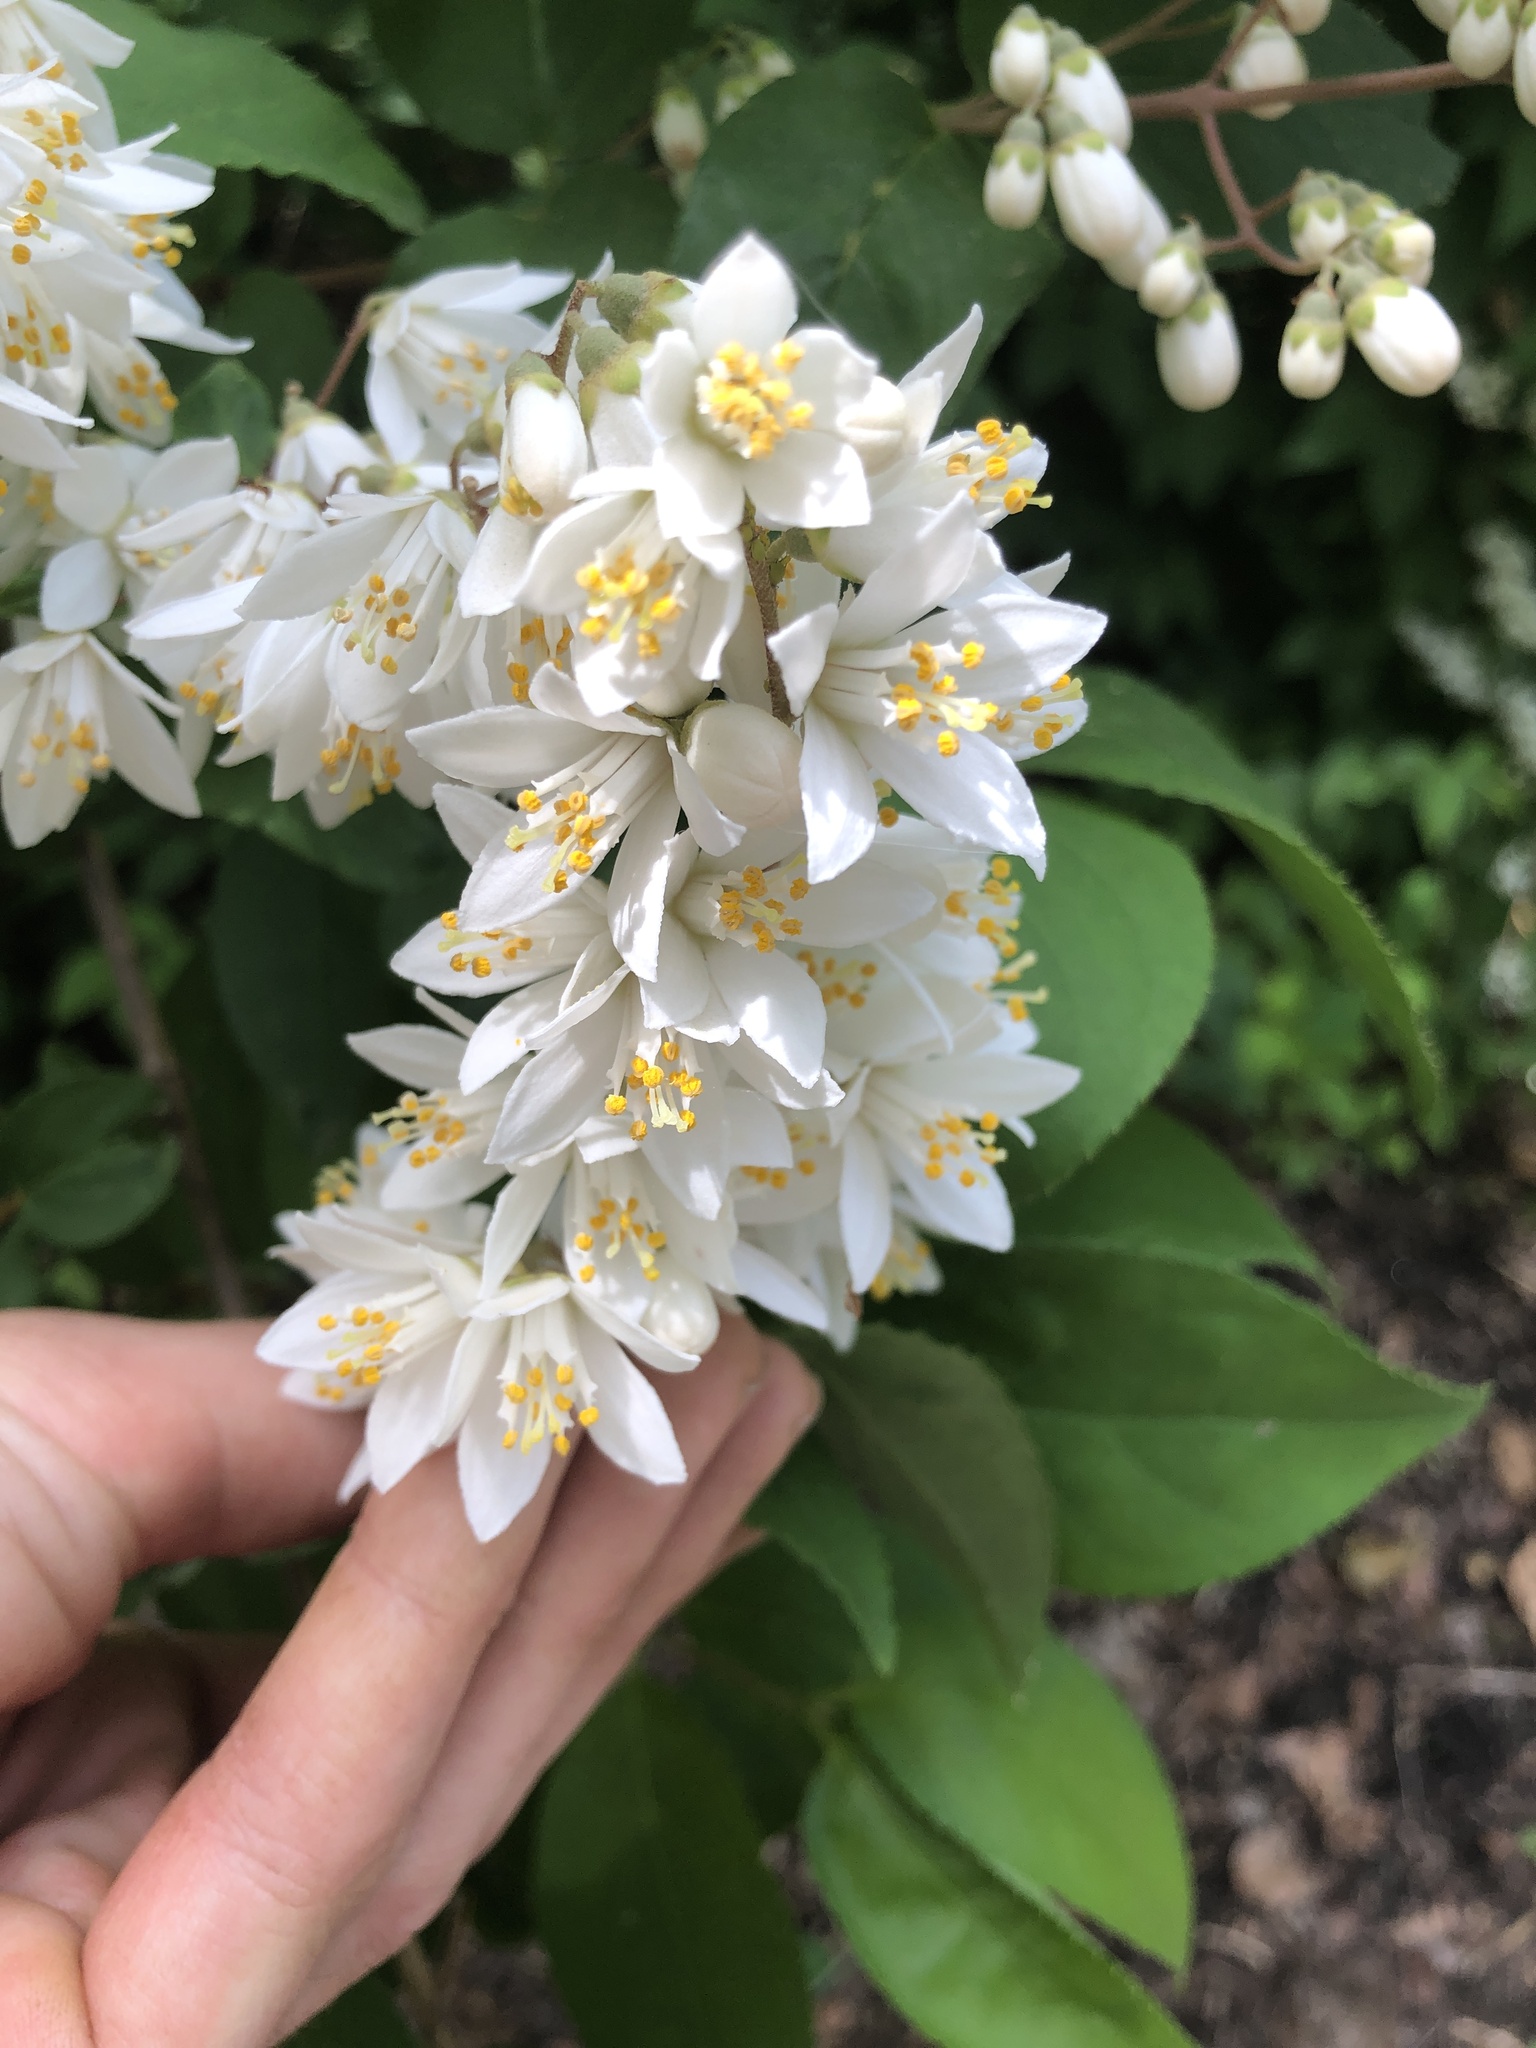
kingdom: Plantae
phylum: Tracheophyta
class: Magnoliopsida
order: Cornales
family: Hydrangeaceae
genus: Deutzia
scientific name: Deutzia crenata
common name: Deutzia
